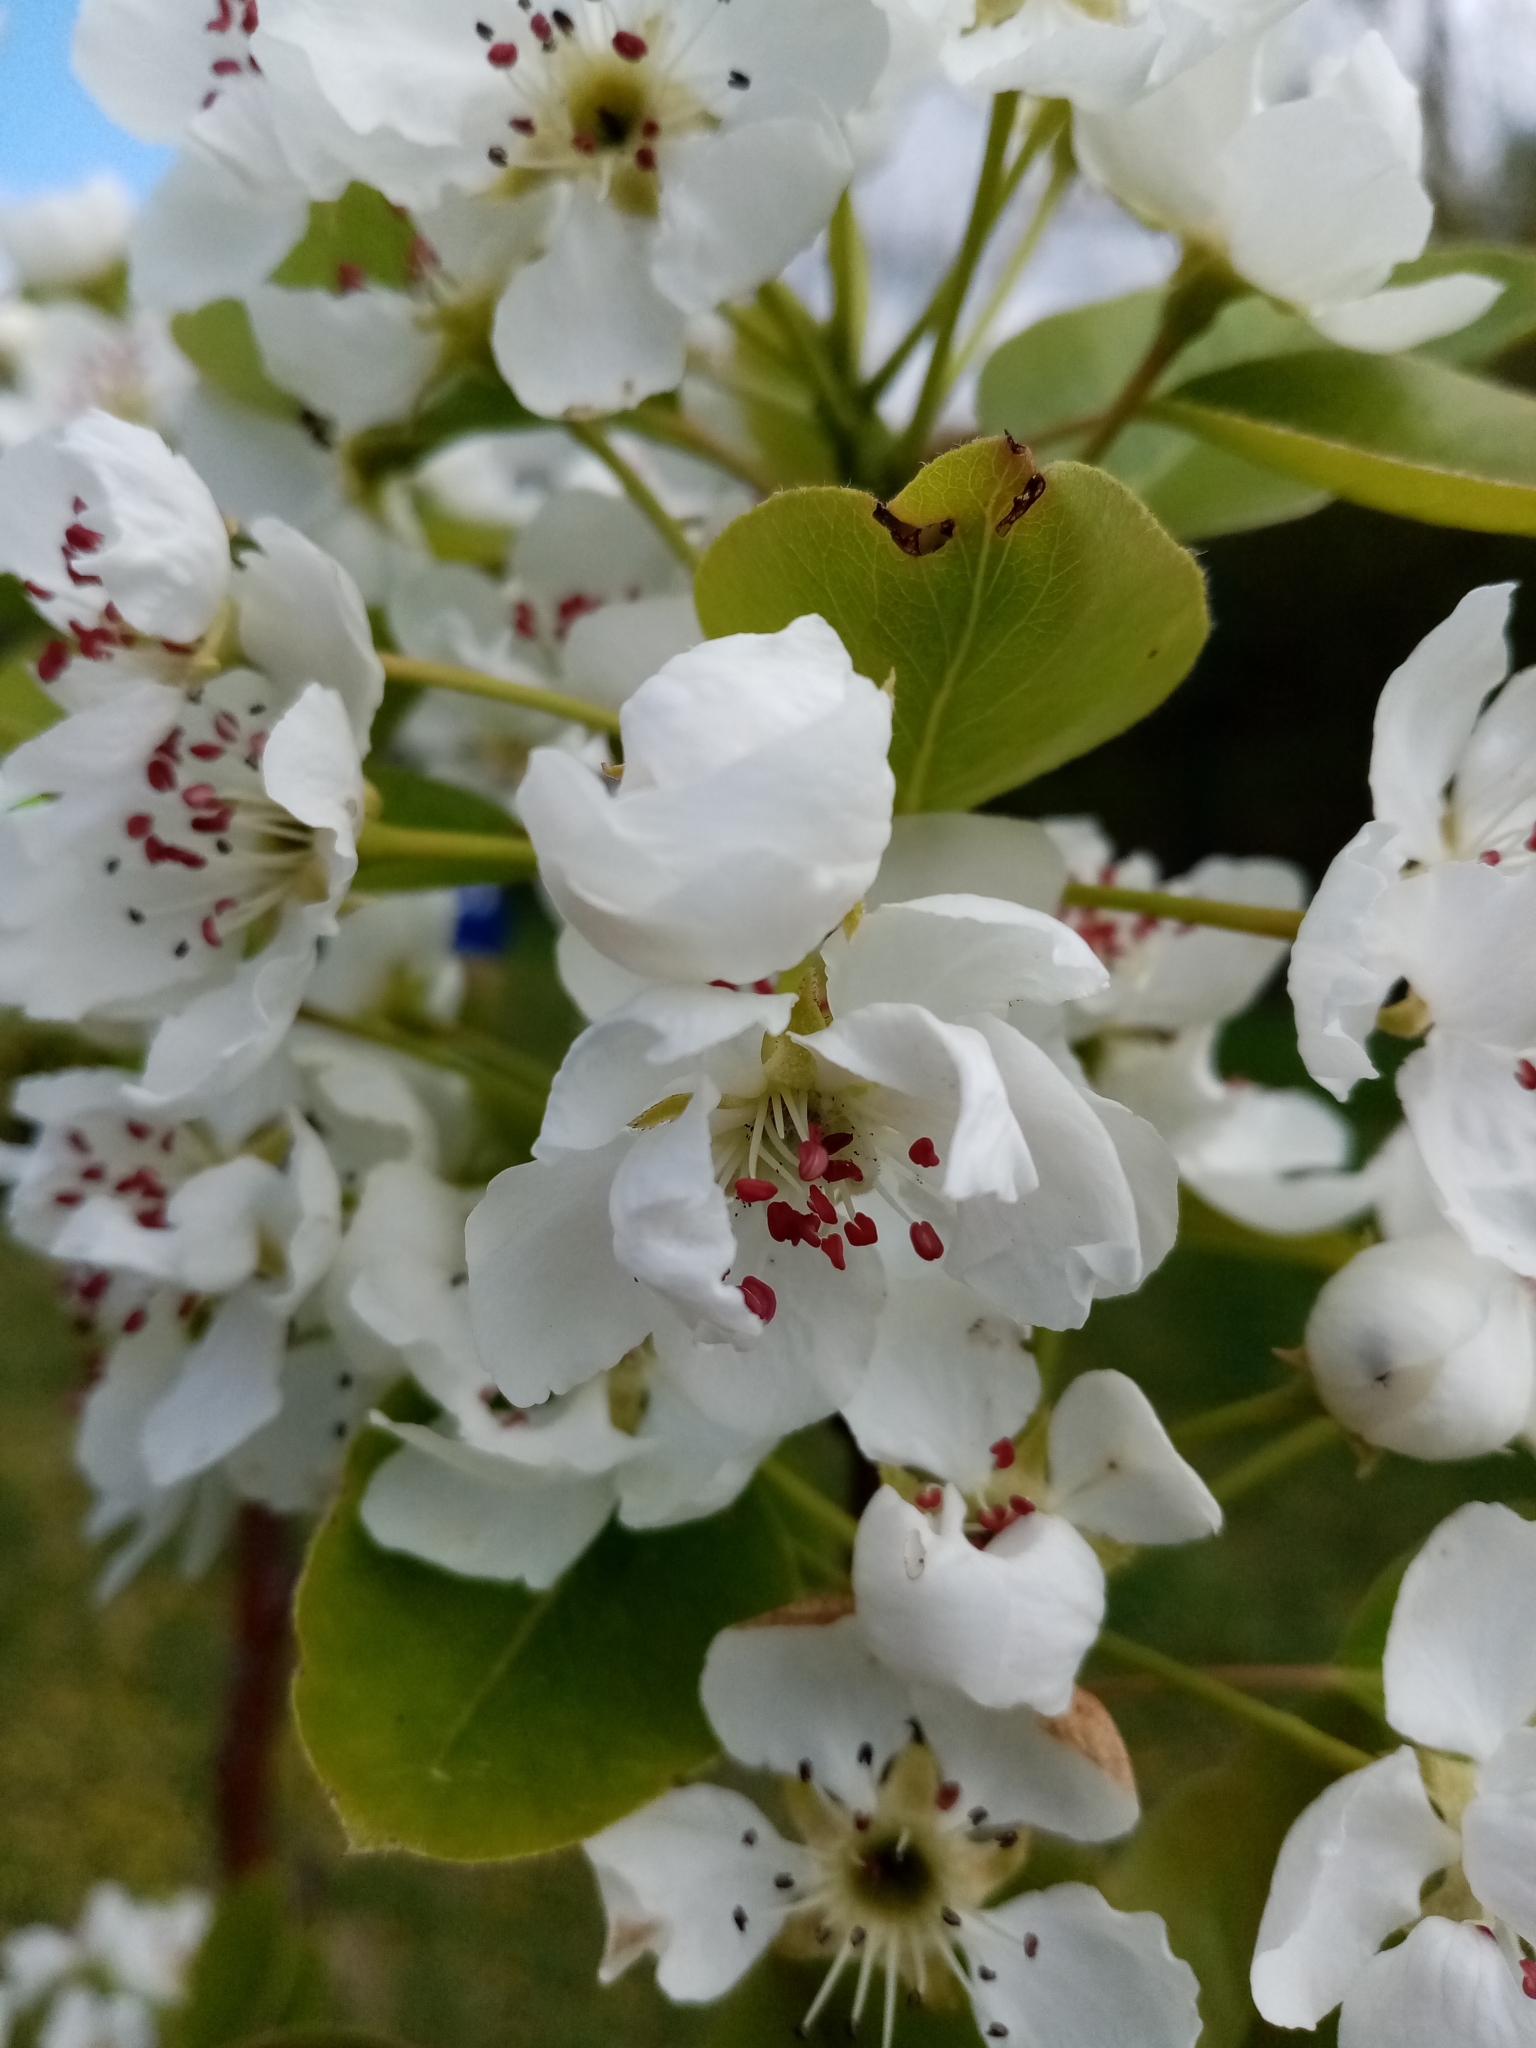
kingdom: Plantae
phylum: Tracheophyta
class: Magnoliopsida
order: Rosales
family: Rosaceae
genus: Pyrus
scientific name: Pyrus communis
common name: Pear
